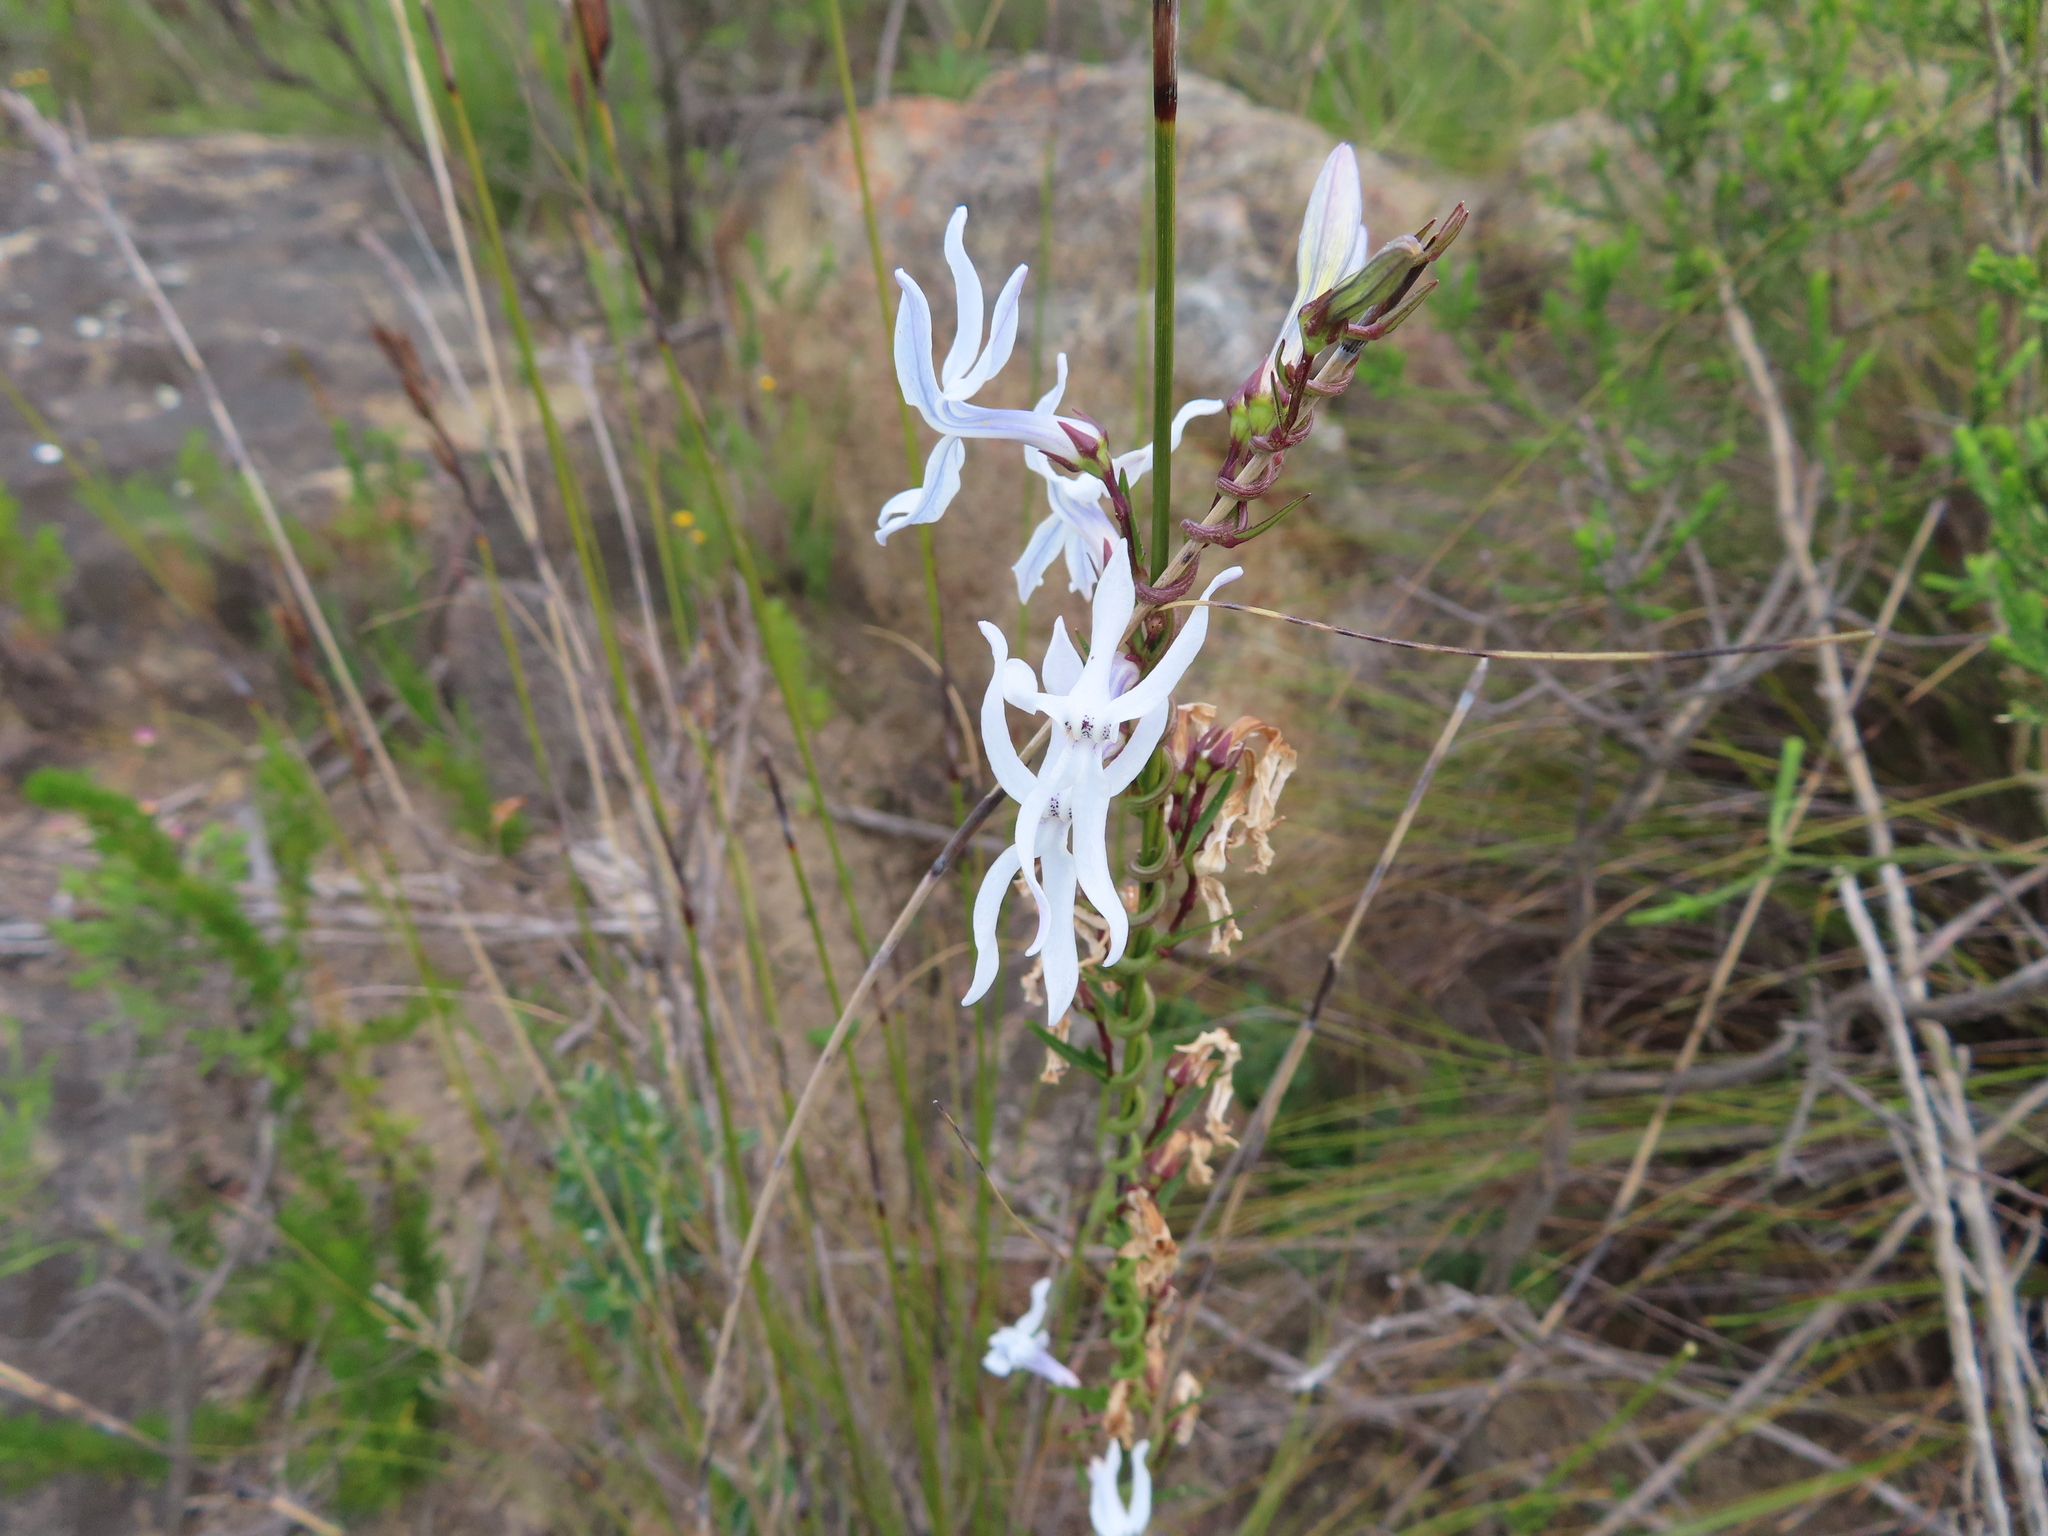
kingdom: Plantae
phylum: Tracheophyta
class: Magnoliopsida
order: Asterales
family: Campanulaceae
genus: Cyphia
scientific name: Cyphia volubilis
